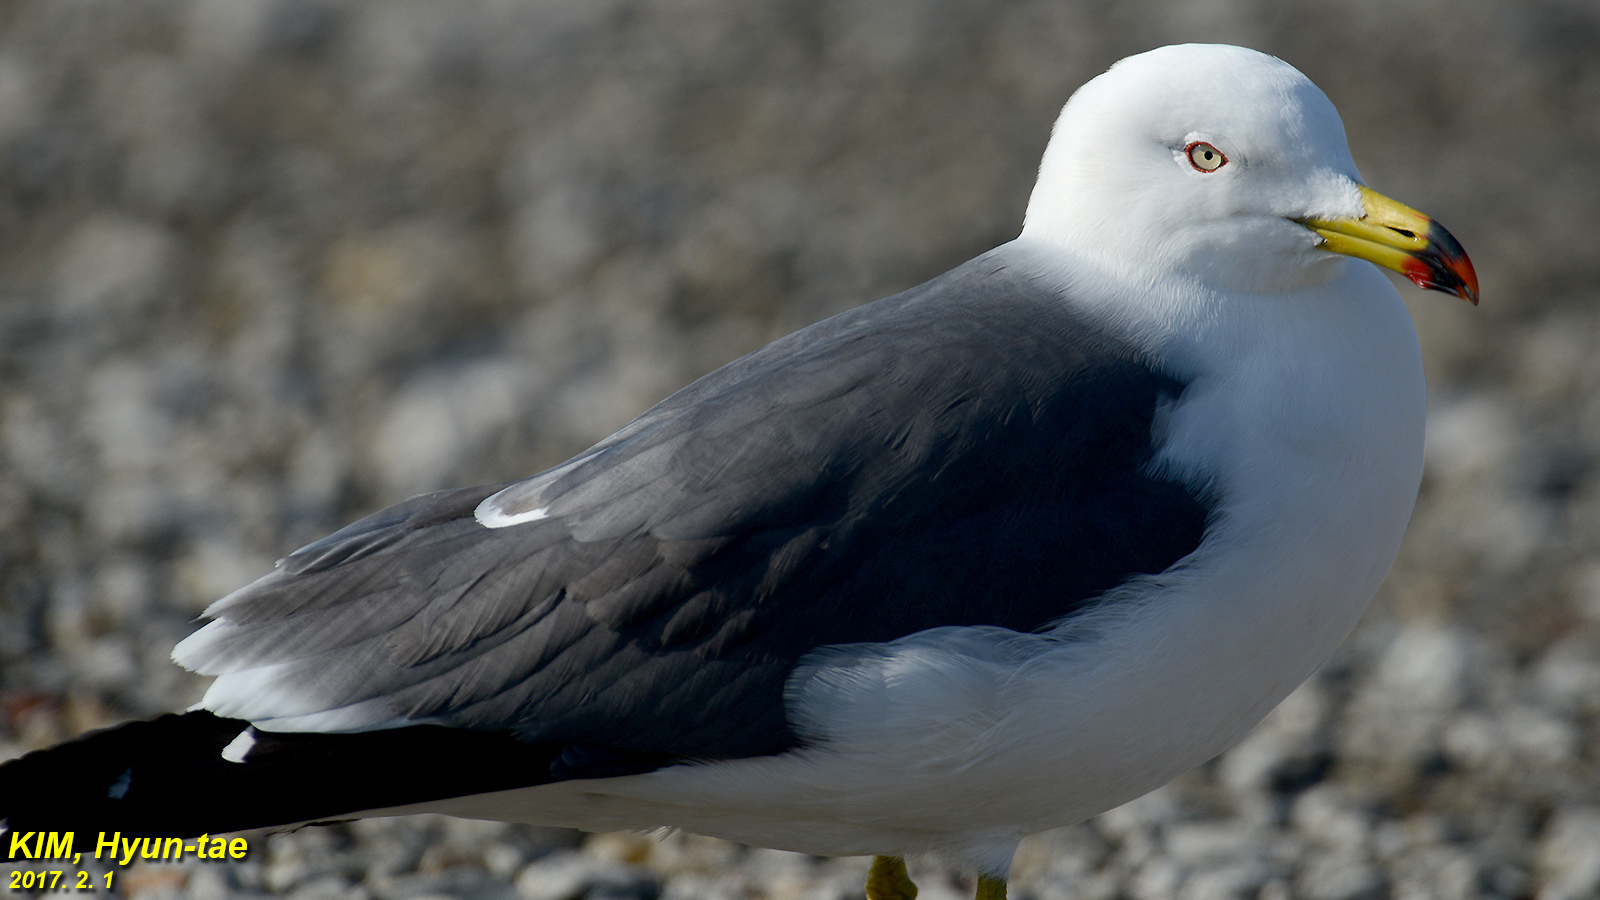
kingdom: Animalia
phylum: Chordata
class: Aves
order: Charadriiformes
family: Laridae
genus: Larus
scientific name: Larus crassirostris
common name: Black-tailed gull
